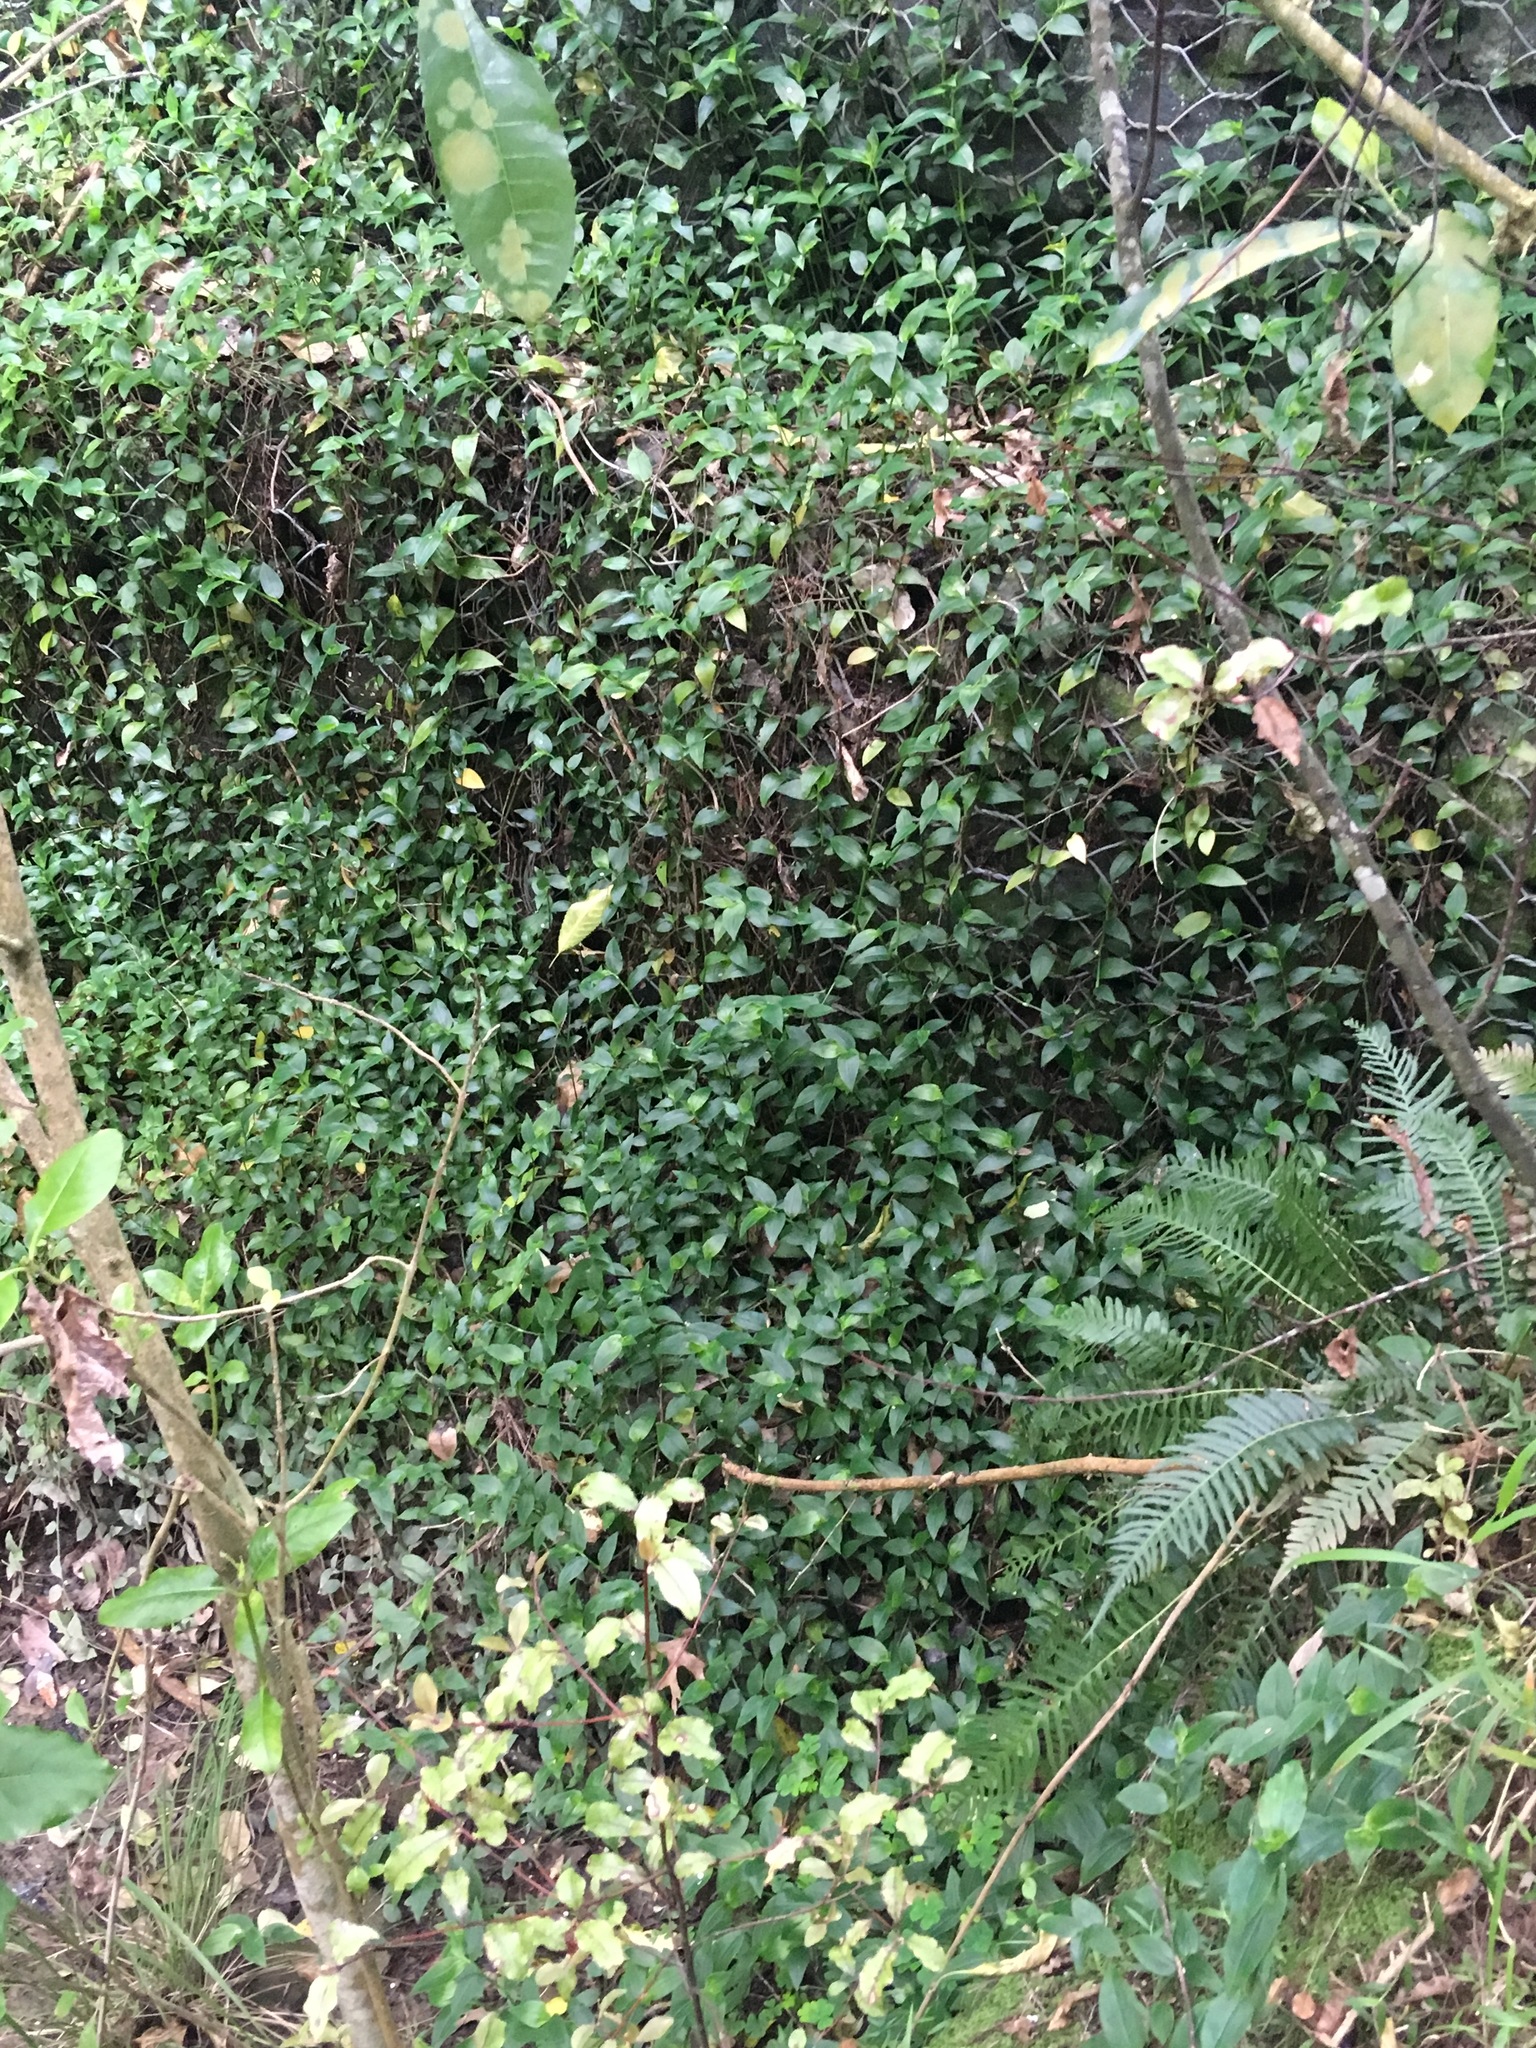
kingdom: Plantae
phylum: Tracheophyta
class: Polypodiopsida
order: Polypodiales
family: Blechnaceae
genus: Doodia
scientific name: Doodia australis
